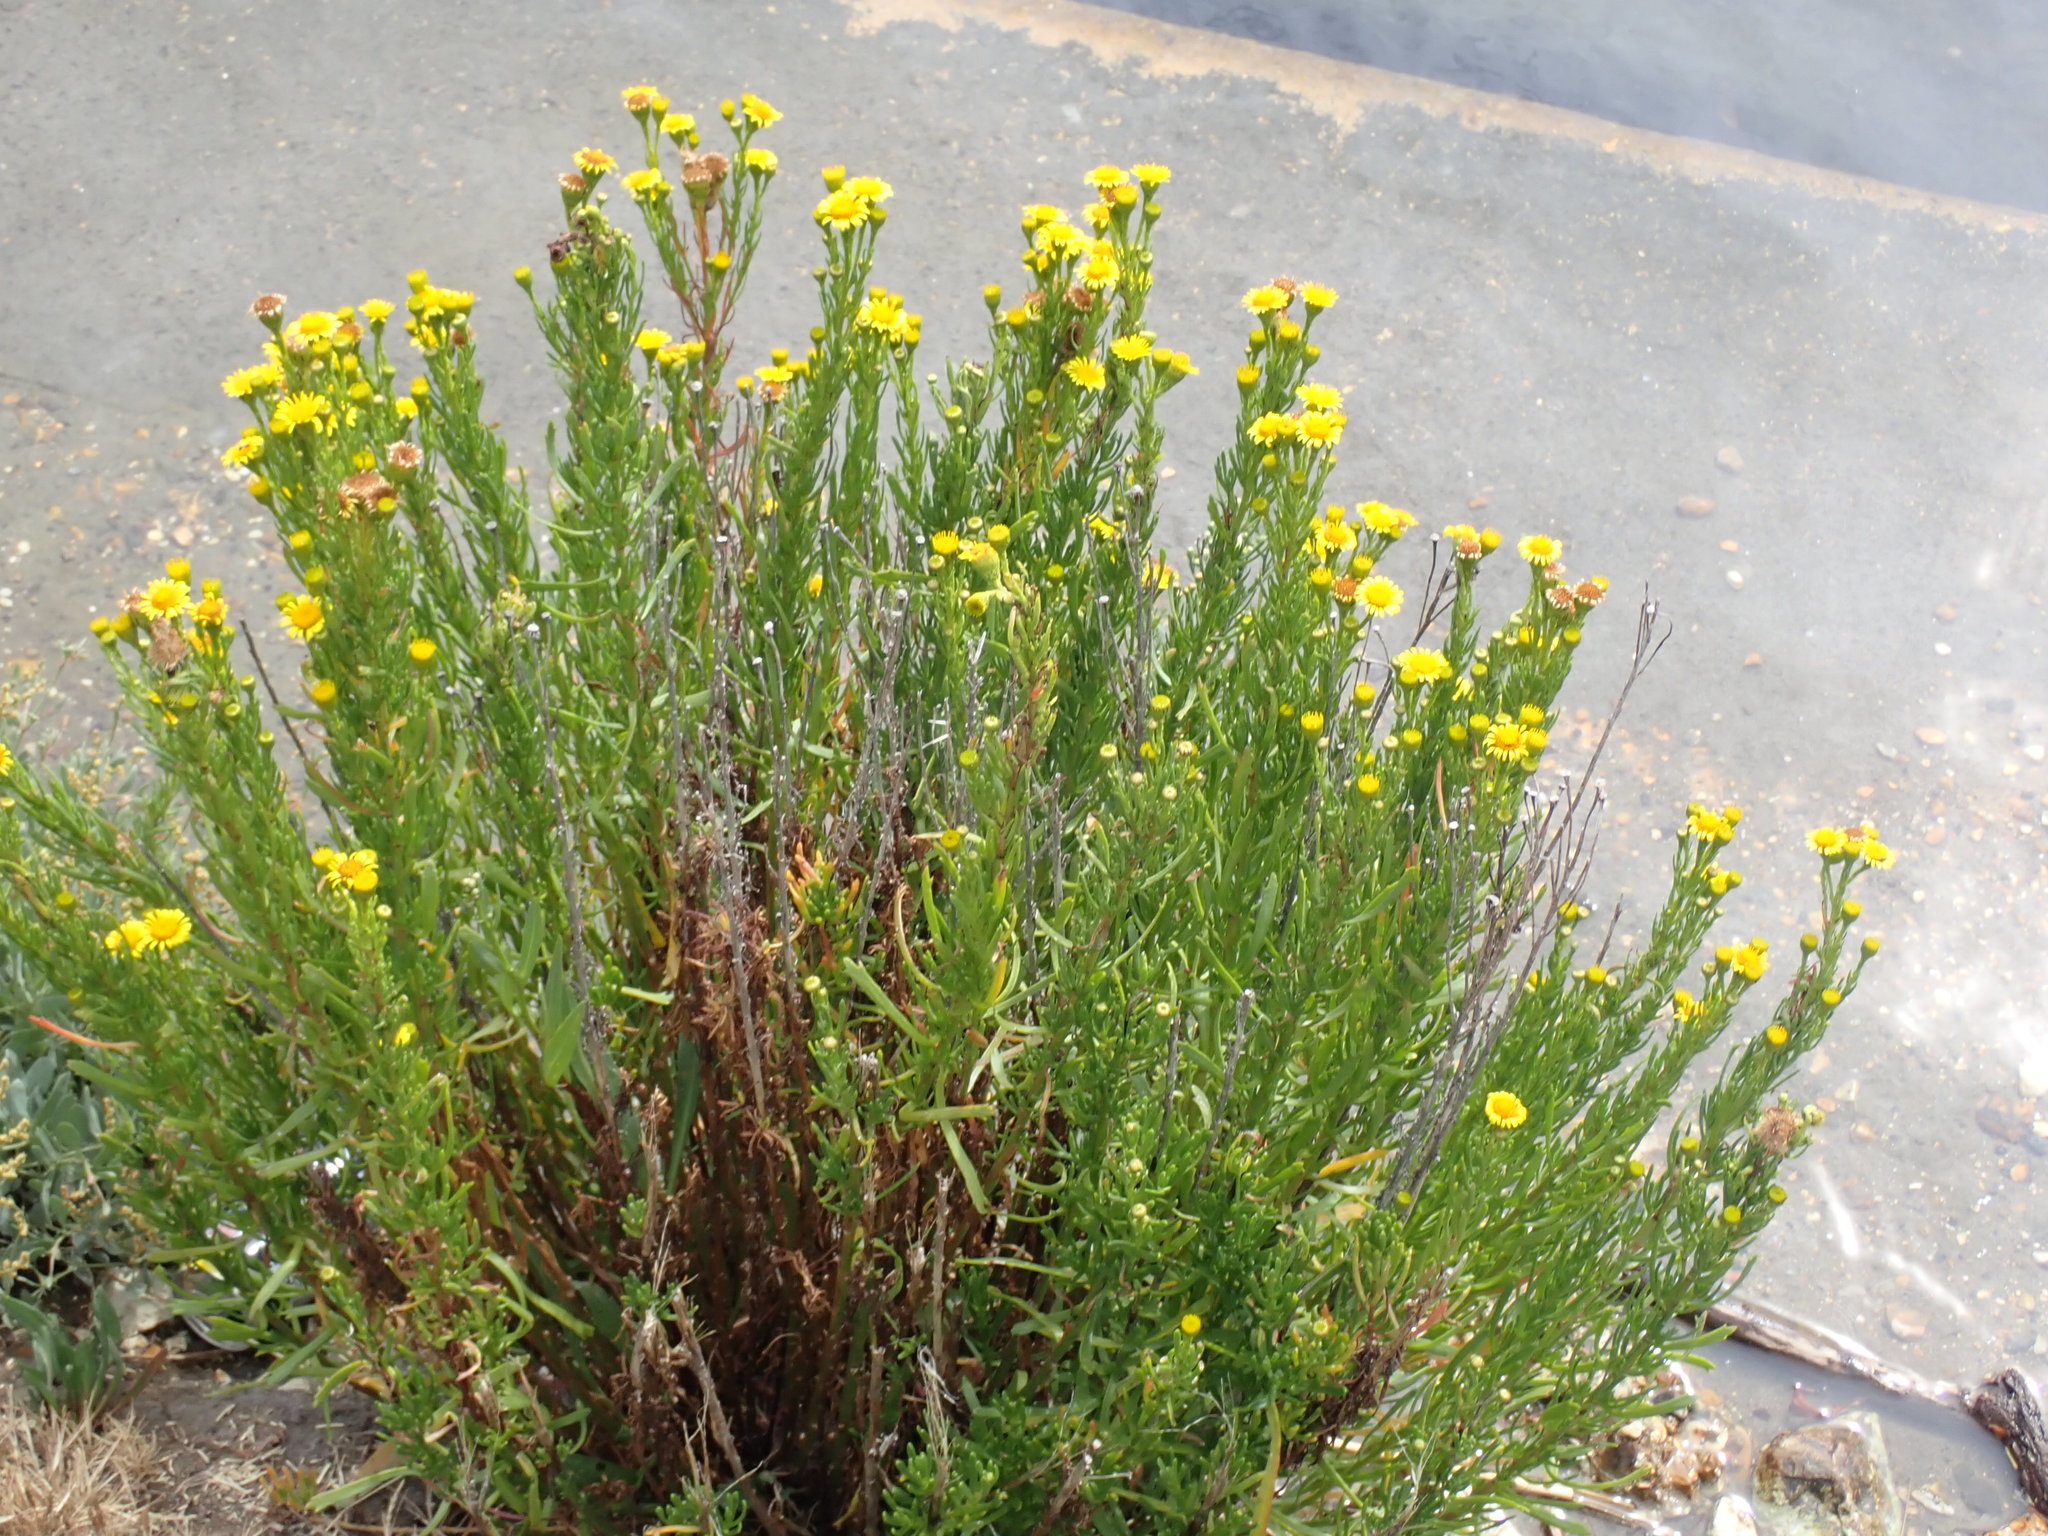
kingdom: Plantae
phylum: Tracheophyta
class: Magnoliopsida
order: Asterales
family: Asteraceae
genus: Limbarda
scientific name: Limbarda crithmoides
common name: Golden samphire
